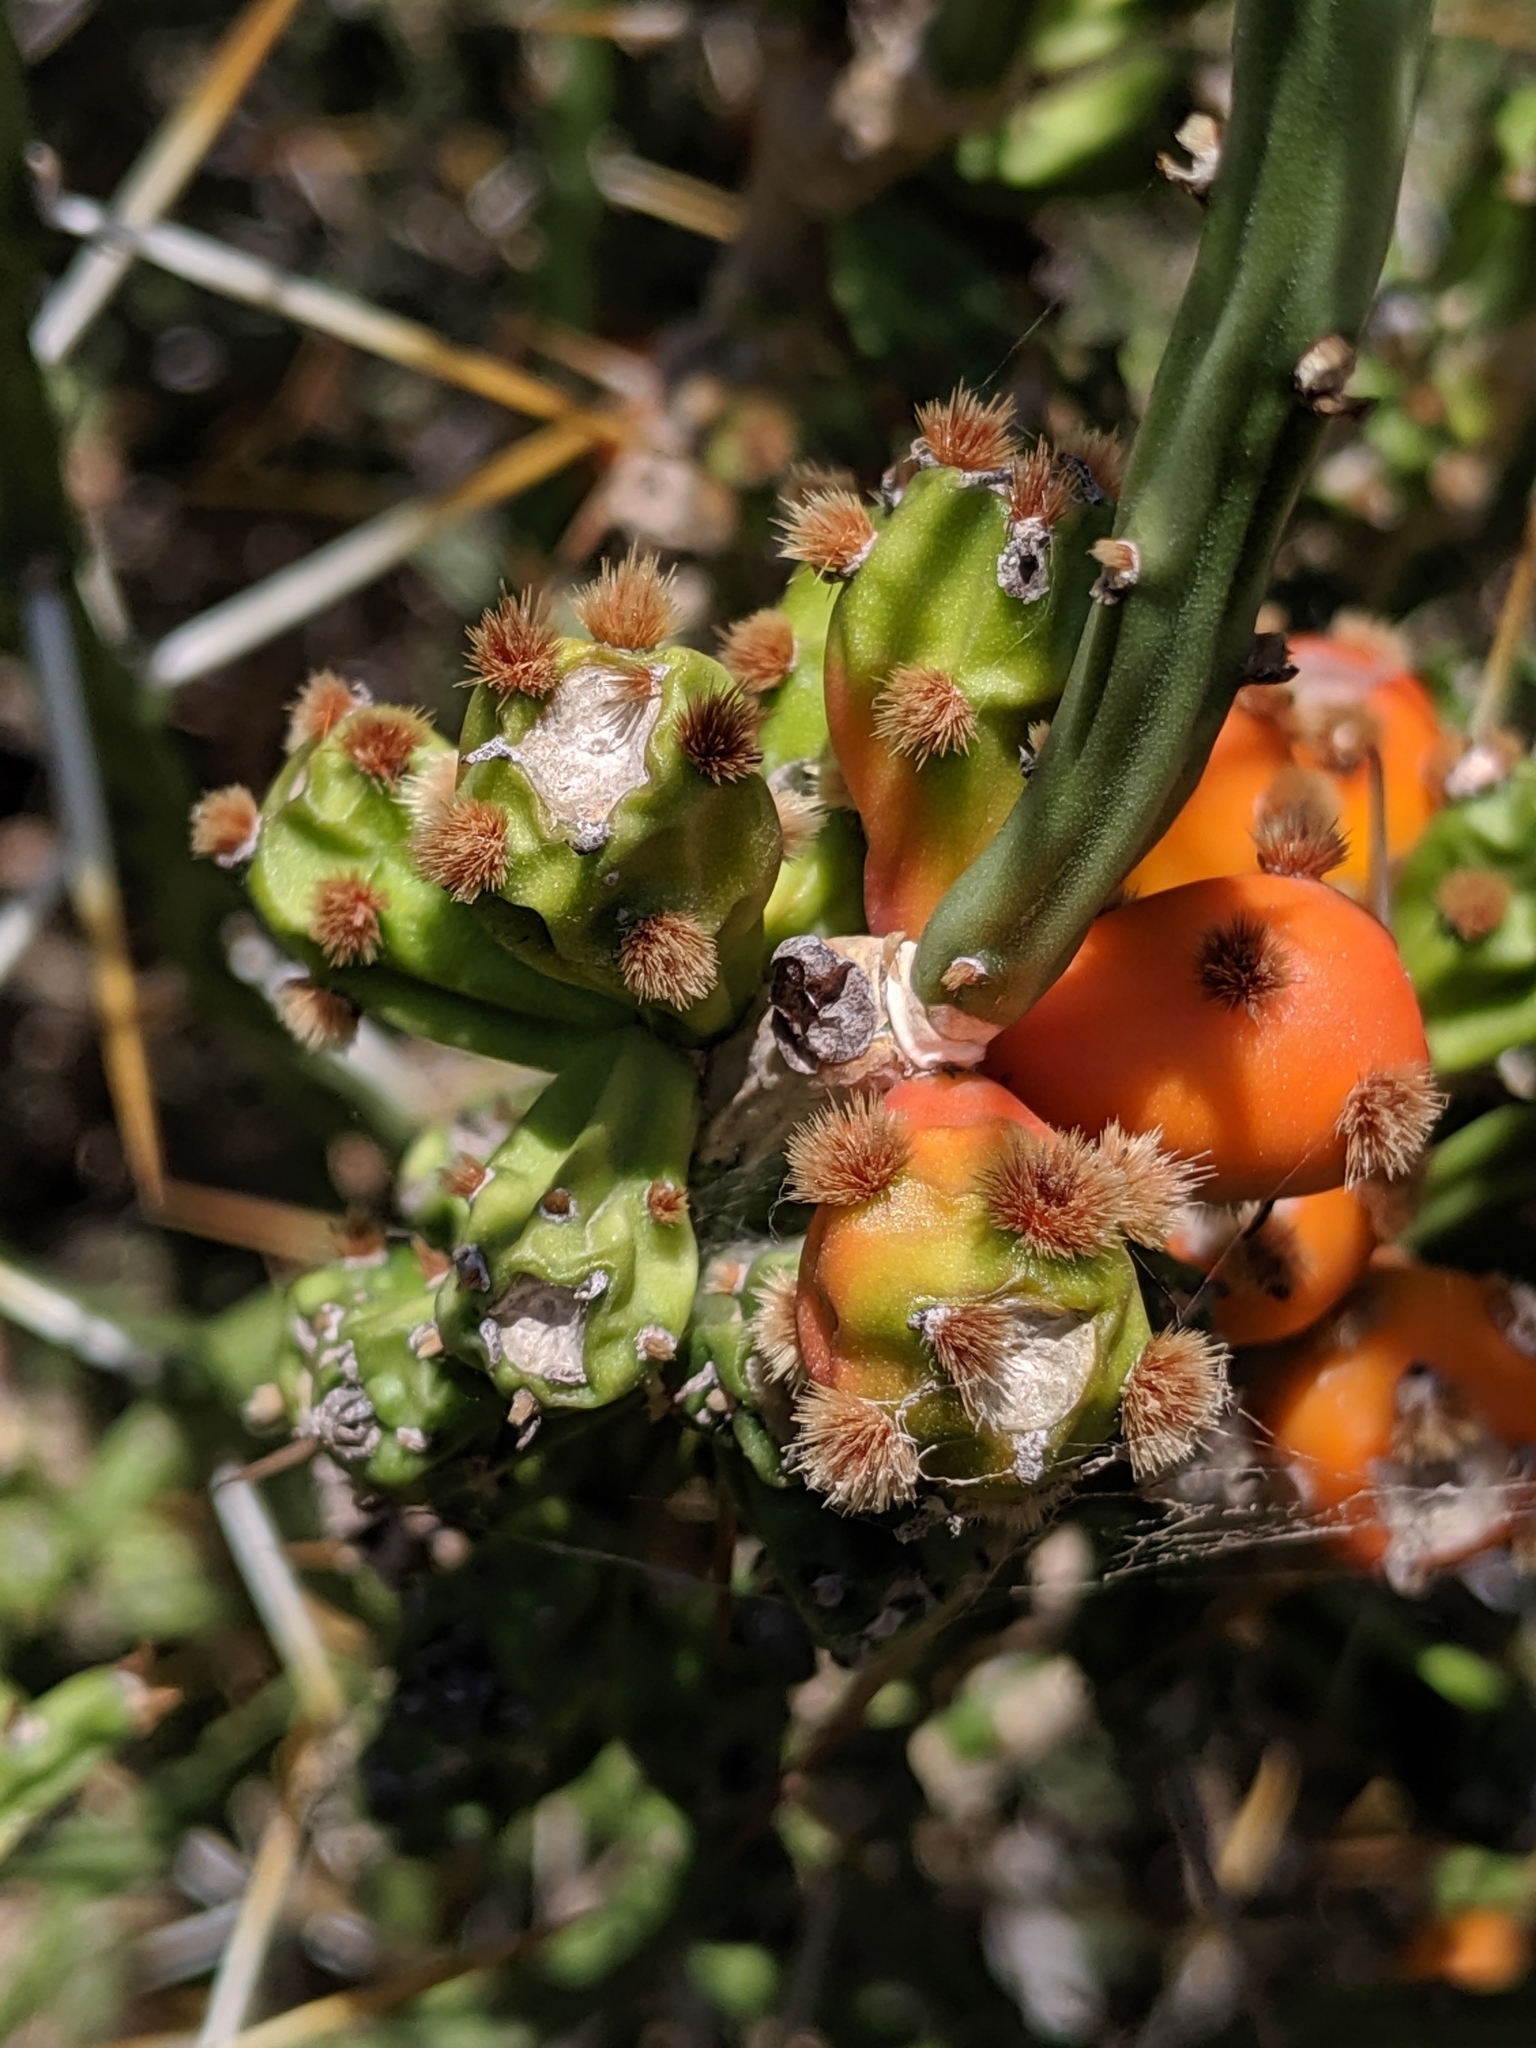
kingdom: Plantae
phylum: Tracheophyta
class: Magnoliopsida
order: Caryophyllales
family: Cactaceae
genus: Cylindropuntia
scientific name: Cylindropuntia leptocaulis
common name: Christmas cactus
